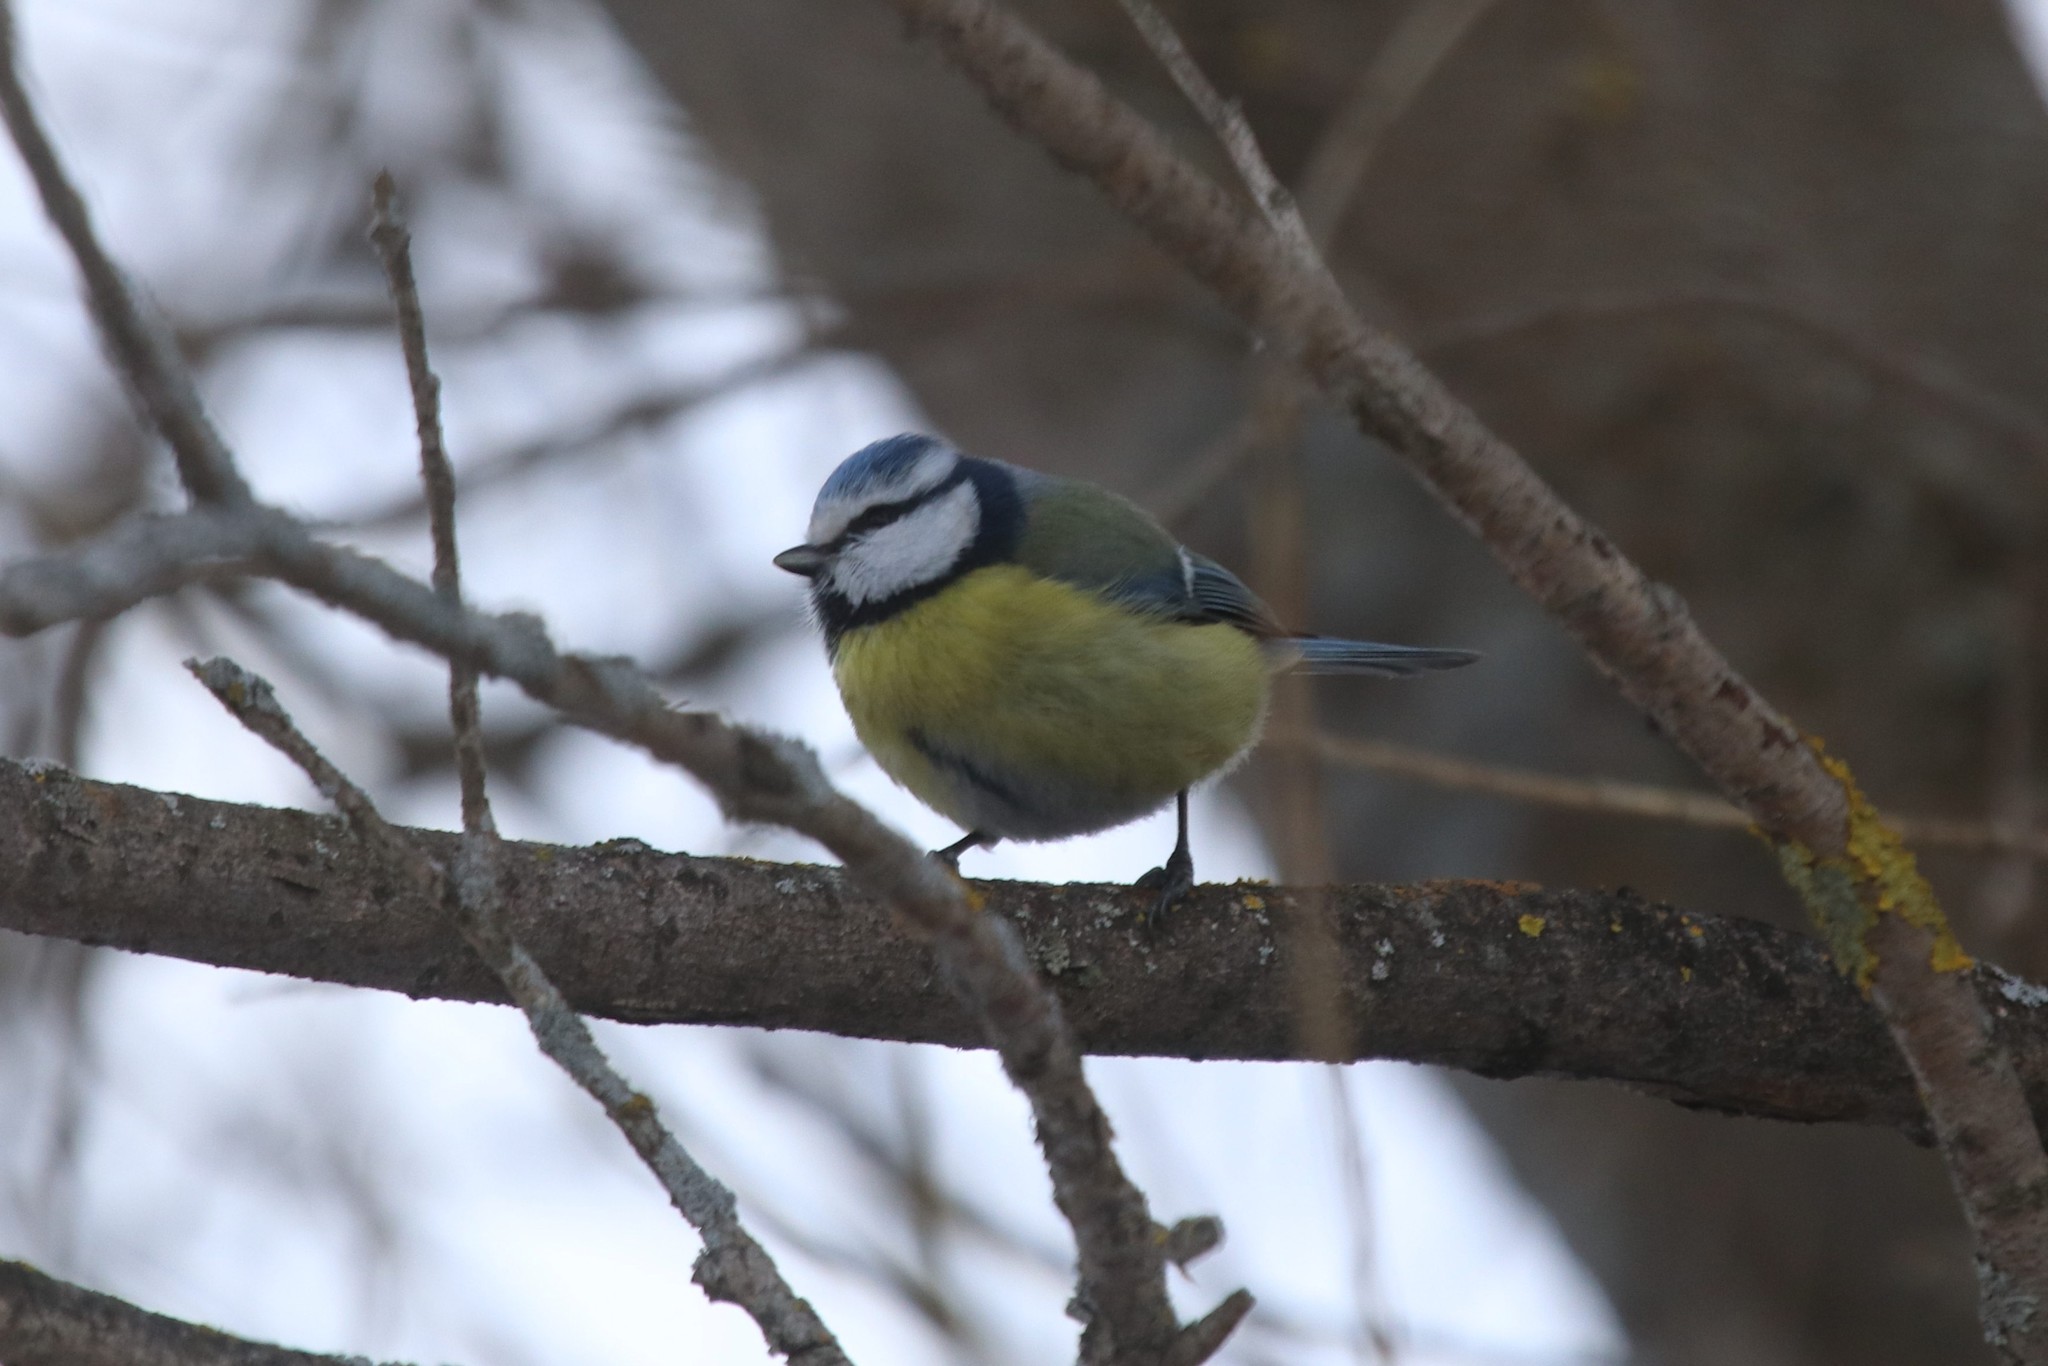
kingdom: Animalia
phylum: Chordata
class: Aves
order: Passeriformes
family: Paridae
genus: Cyanistes
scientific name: Cyanistes caeruleus
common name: Eurasian blue tit
